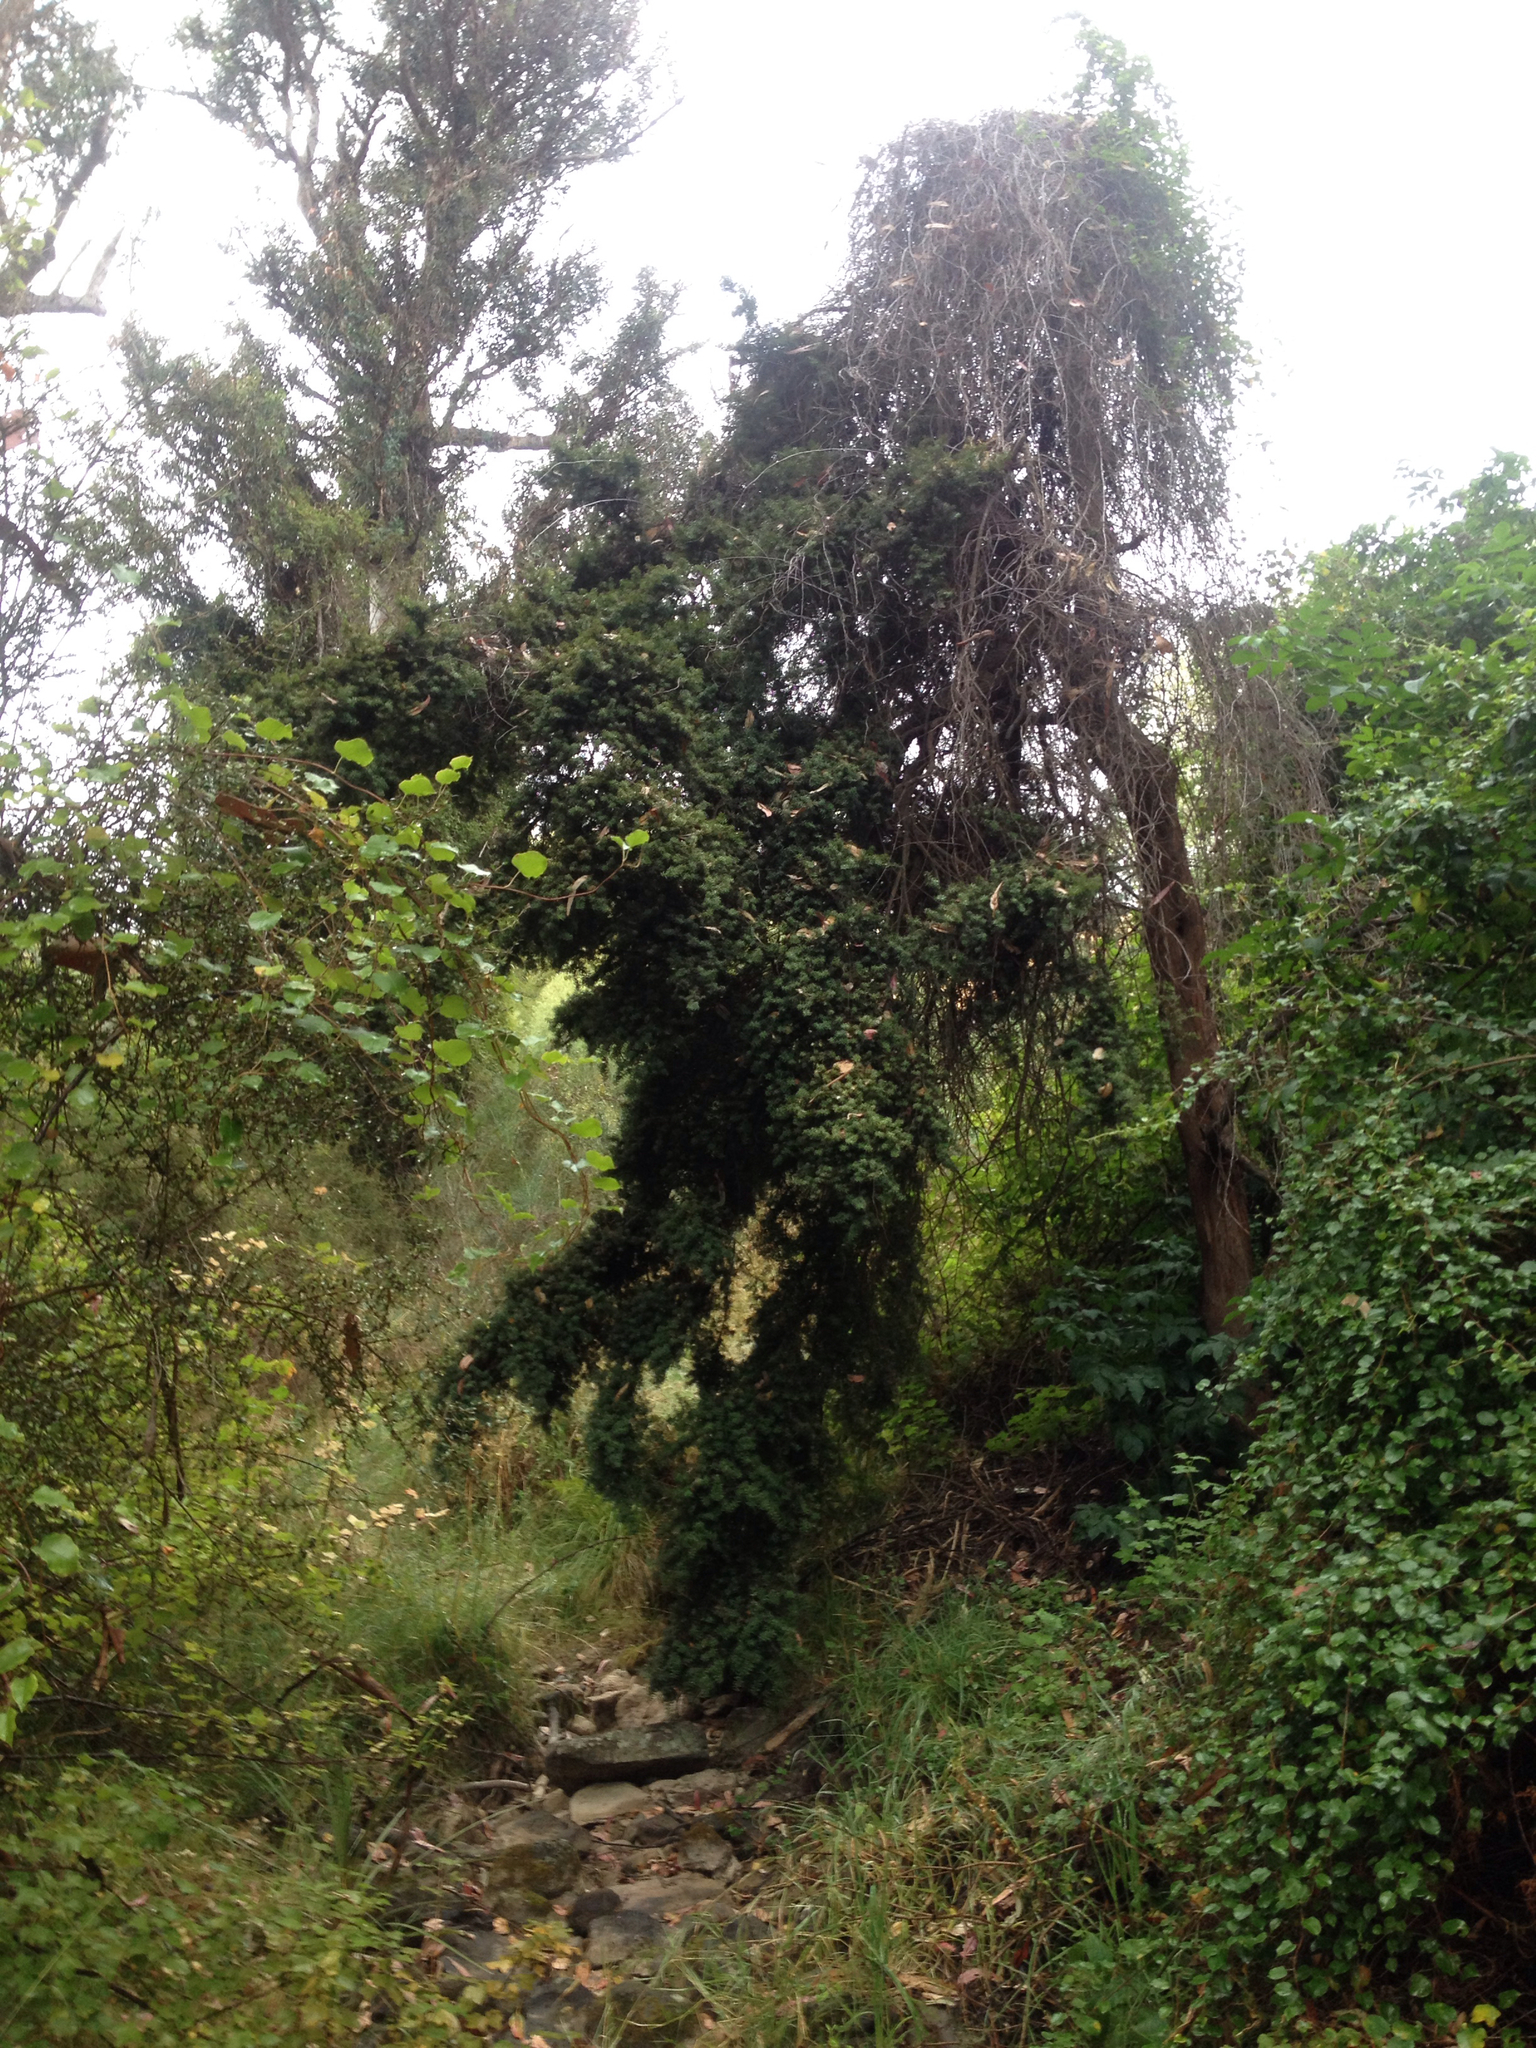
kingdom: Plantae
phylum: Tracheophyta
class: Pinopsida
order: Pinales
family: Podocarpaceae
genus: Podocarpus
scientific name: Podocarpus totara
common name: Totara
